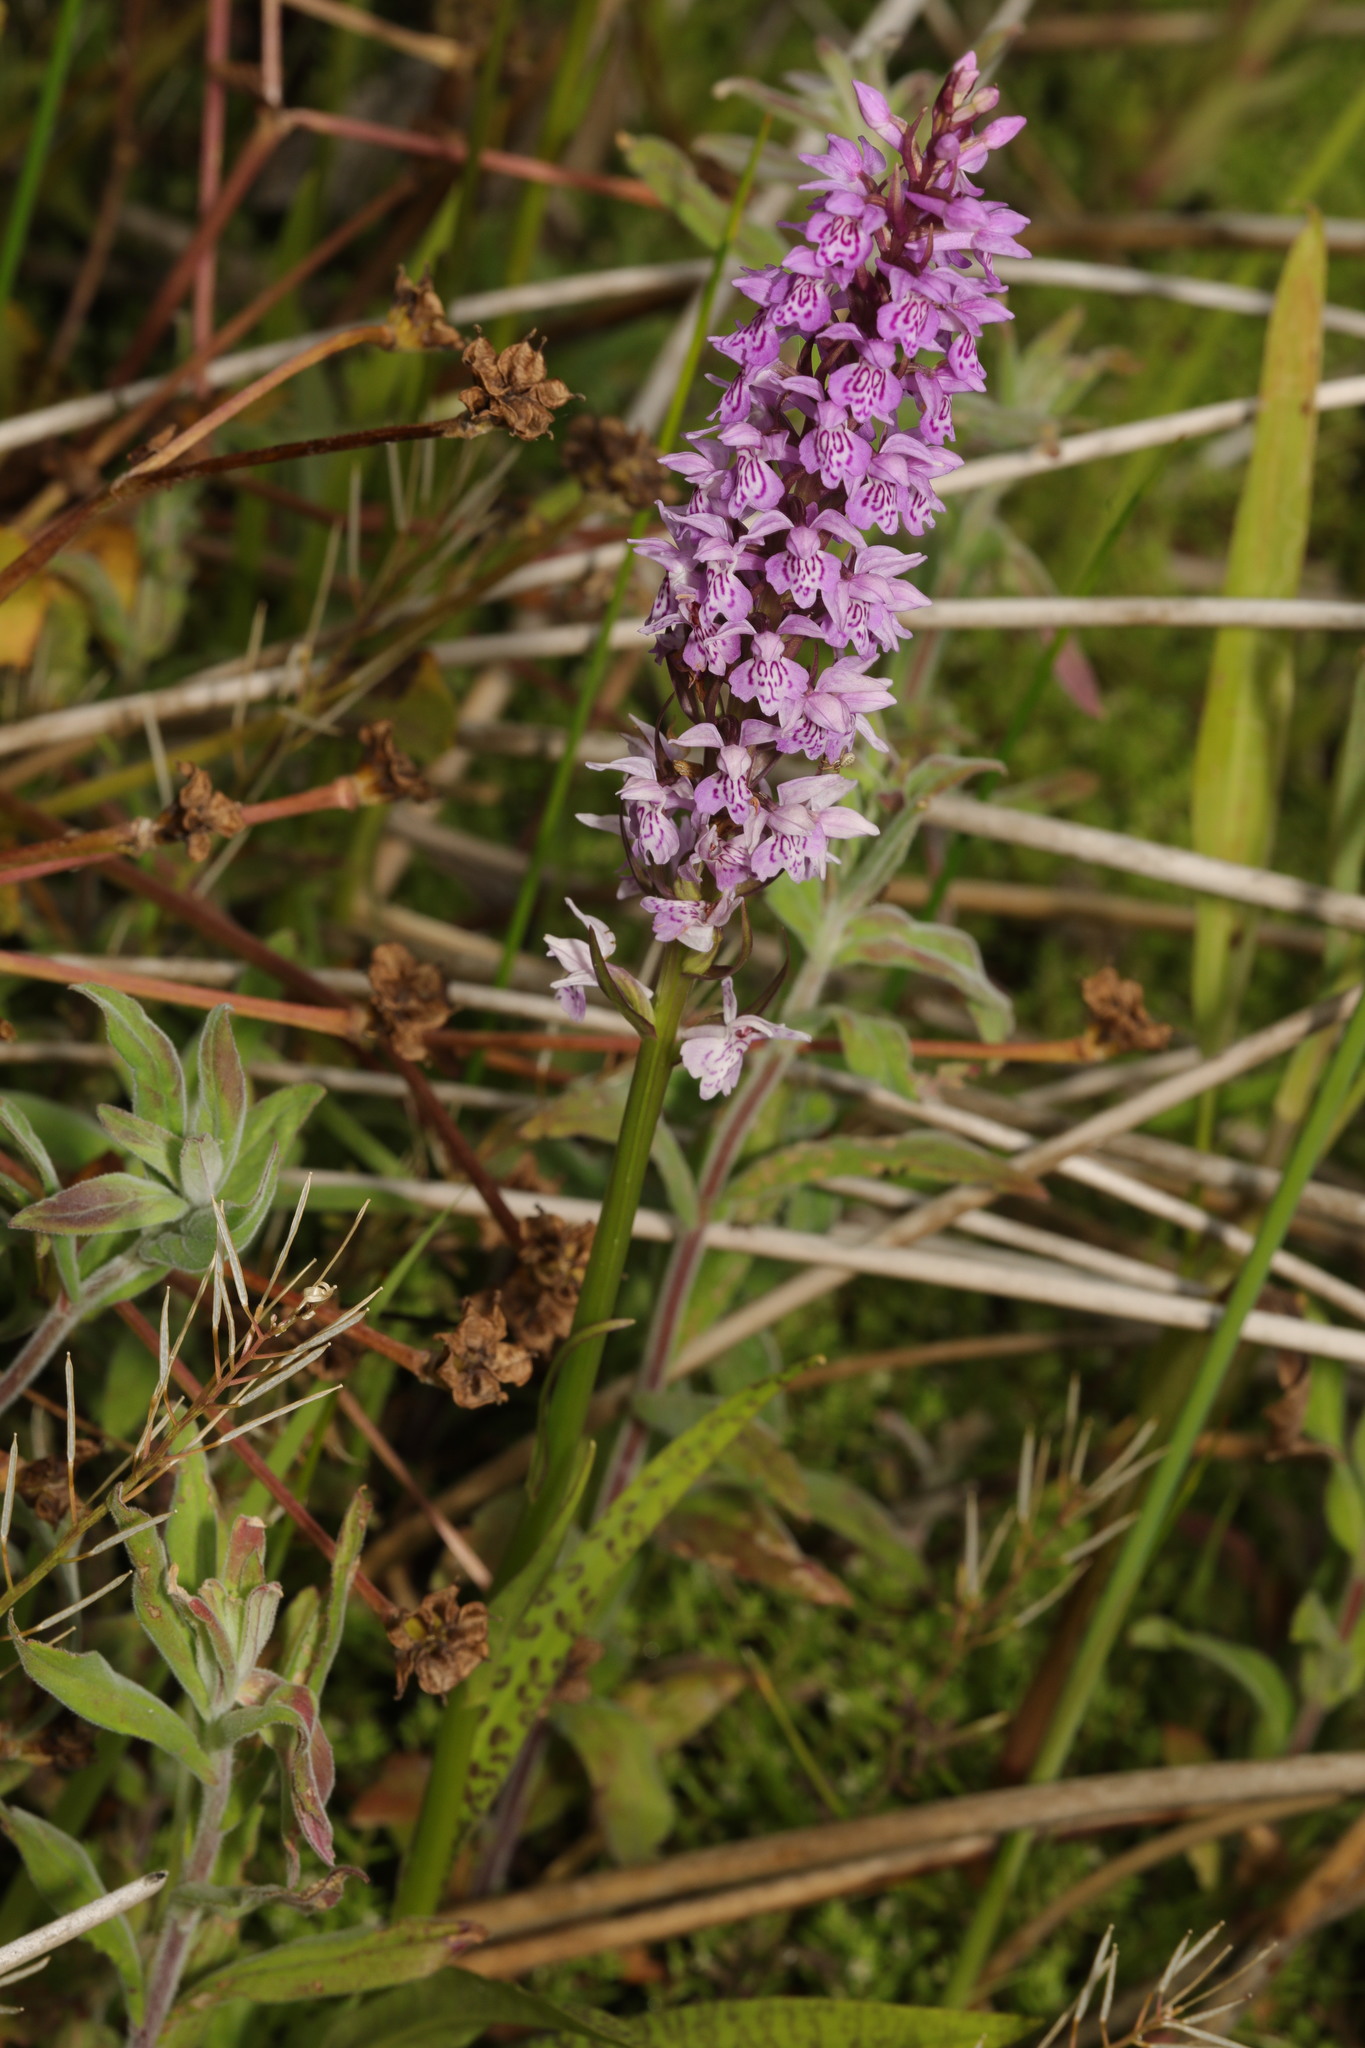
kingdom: Plantae
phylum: Tracheophyta
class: Liliopsida
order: Asparagales
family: Orchidaceae
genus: Dactylorhiza
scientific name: Dactylorhiza maculata
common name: Heath spotted-orchid
